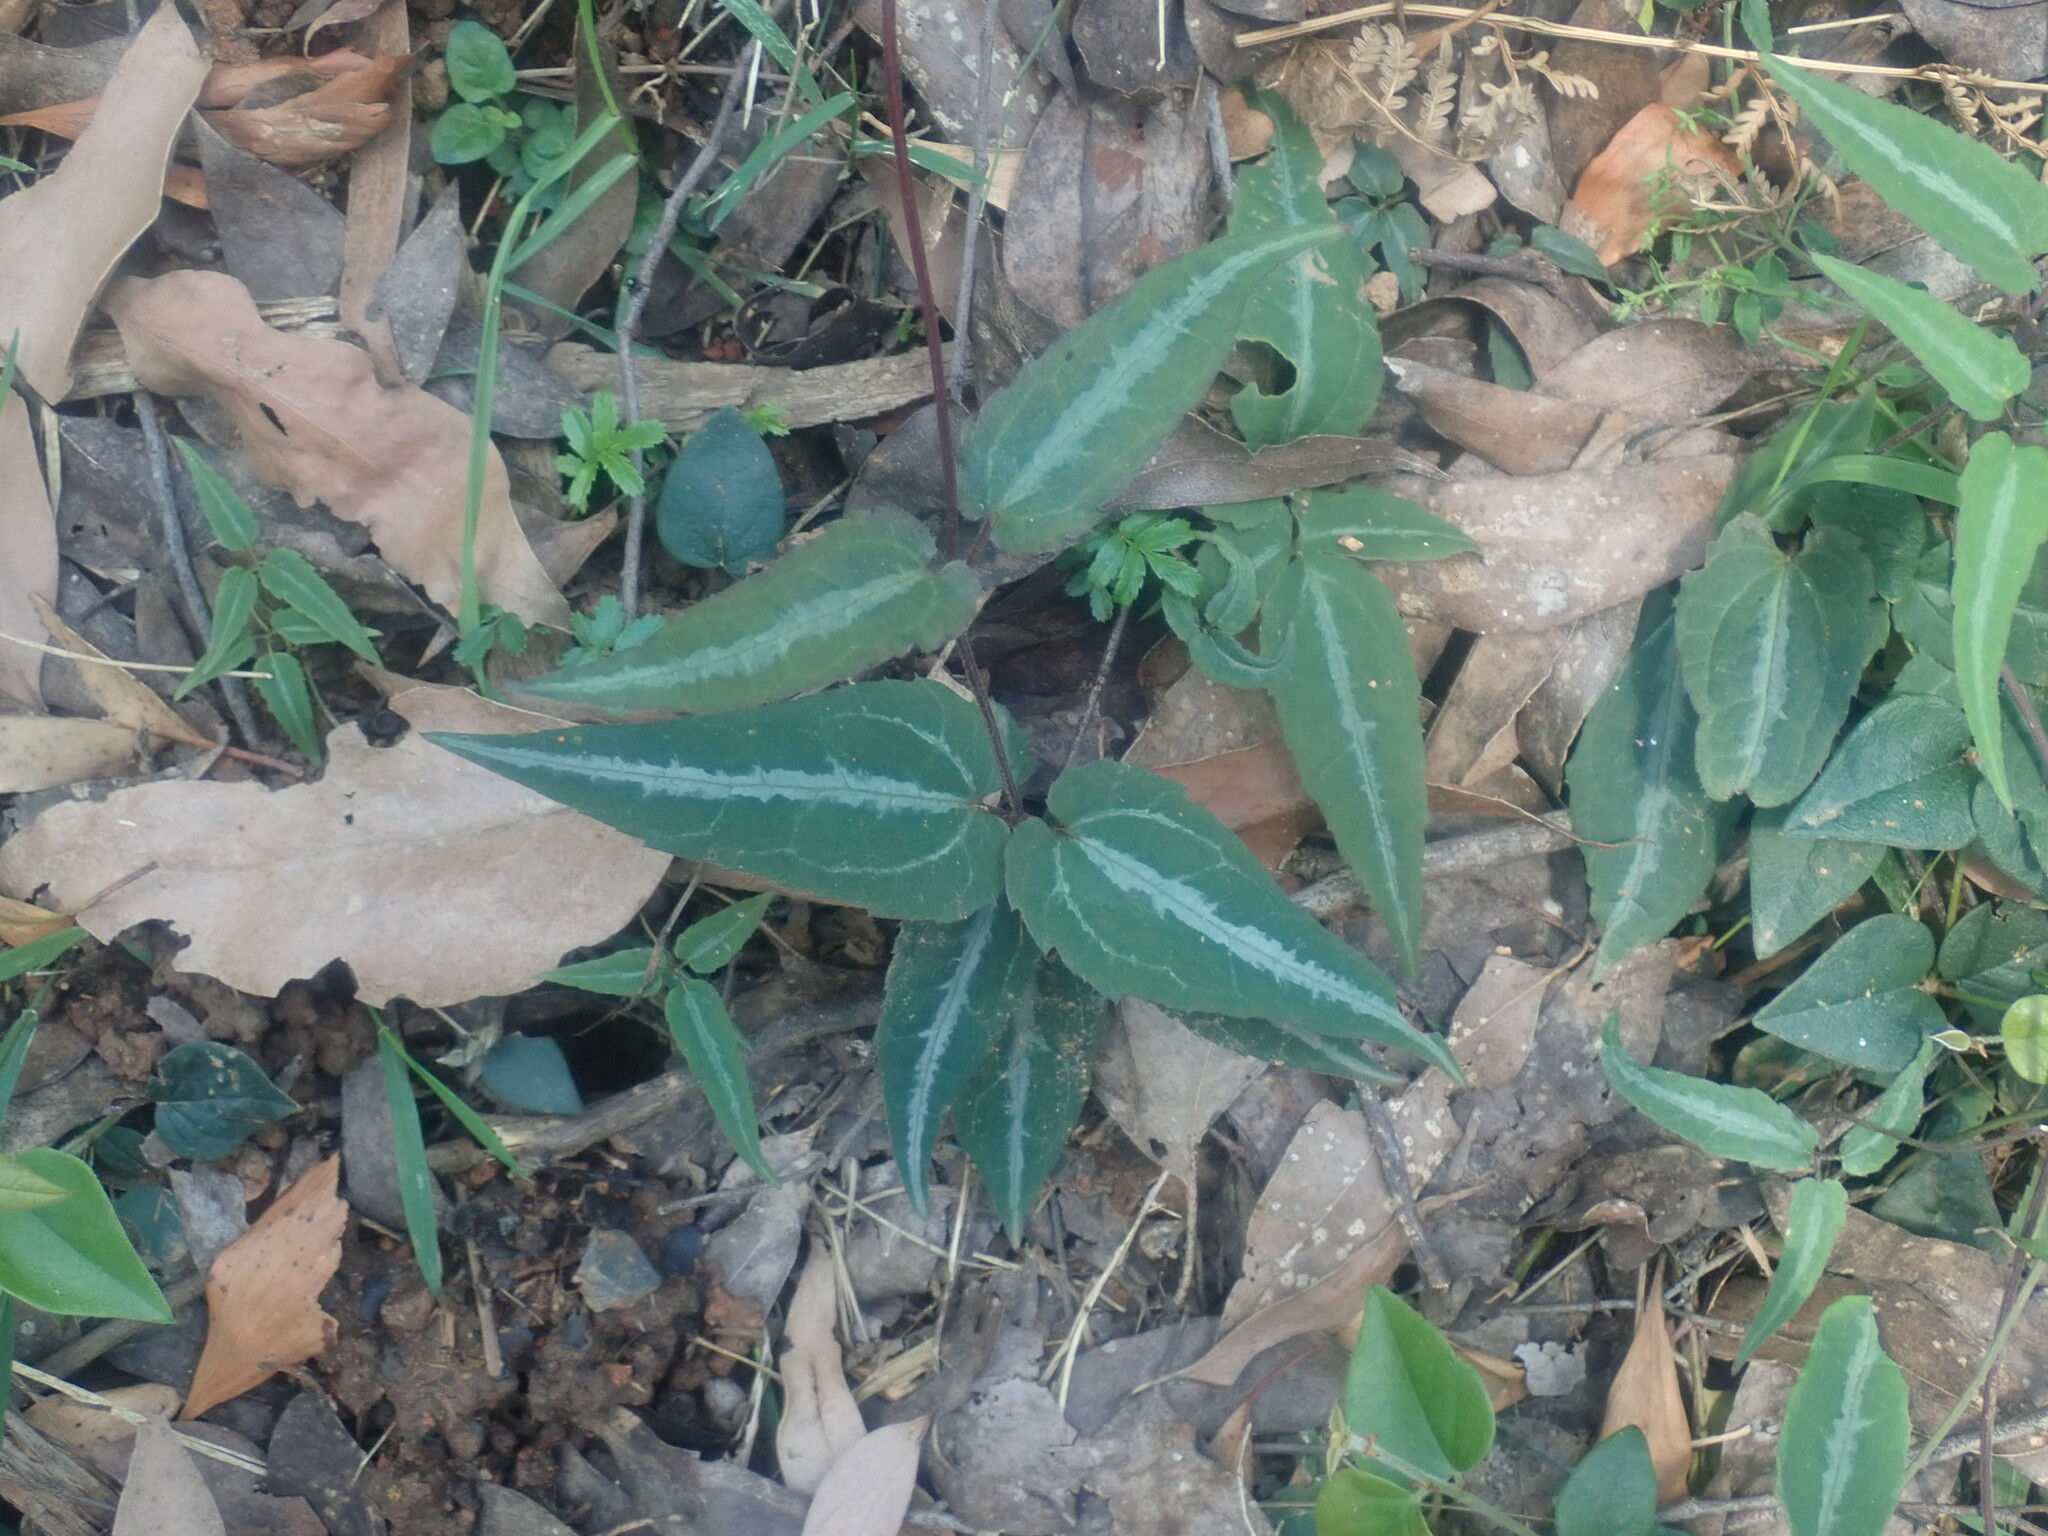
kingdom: Plantae
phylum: Tracheophyta
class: Magnoliopsida
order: Ranunculales
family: Ranunculaceae
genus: Clematis
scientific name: Clematis aristata
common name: Mountain clematis
